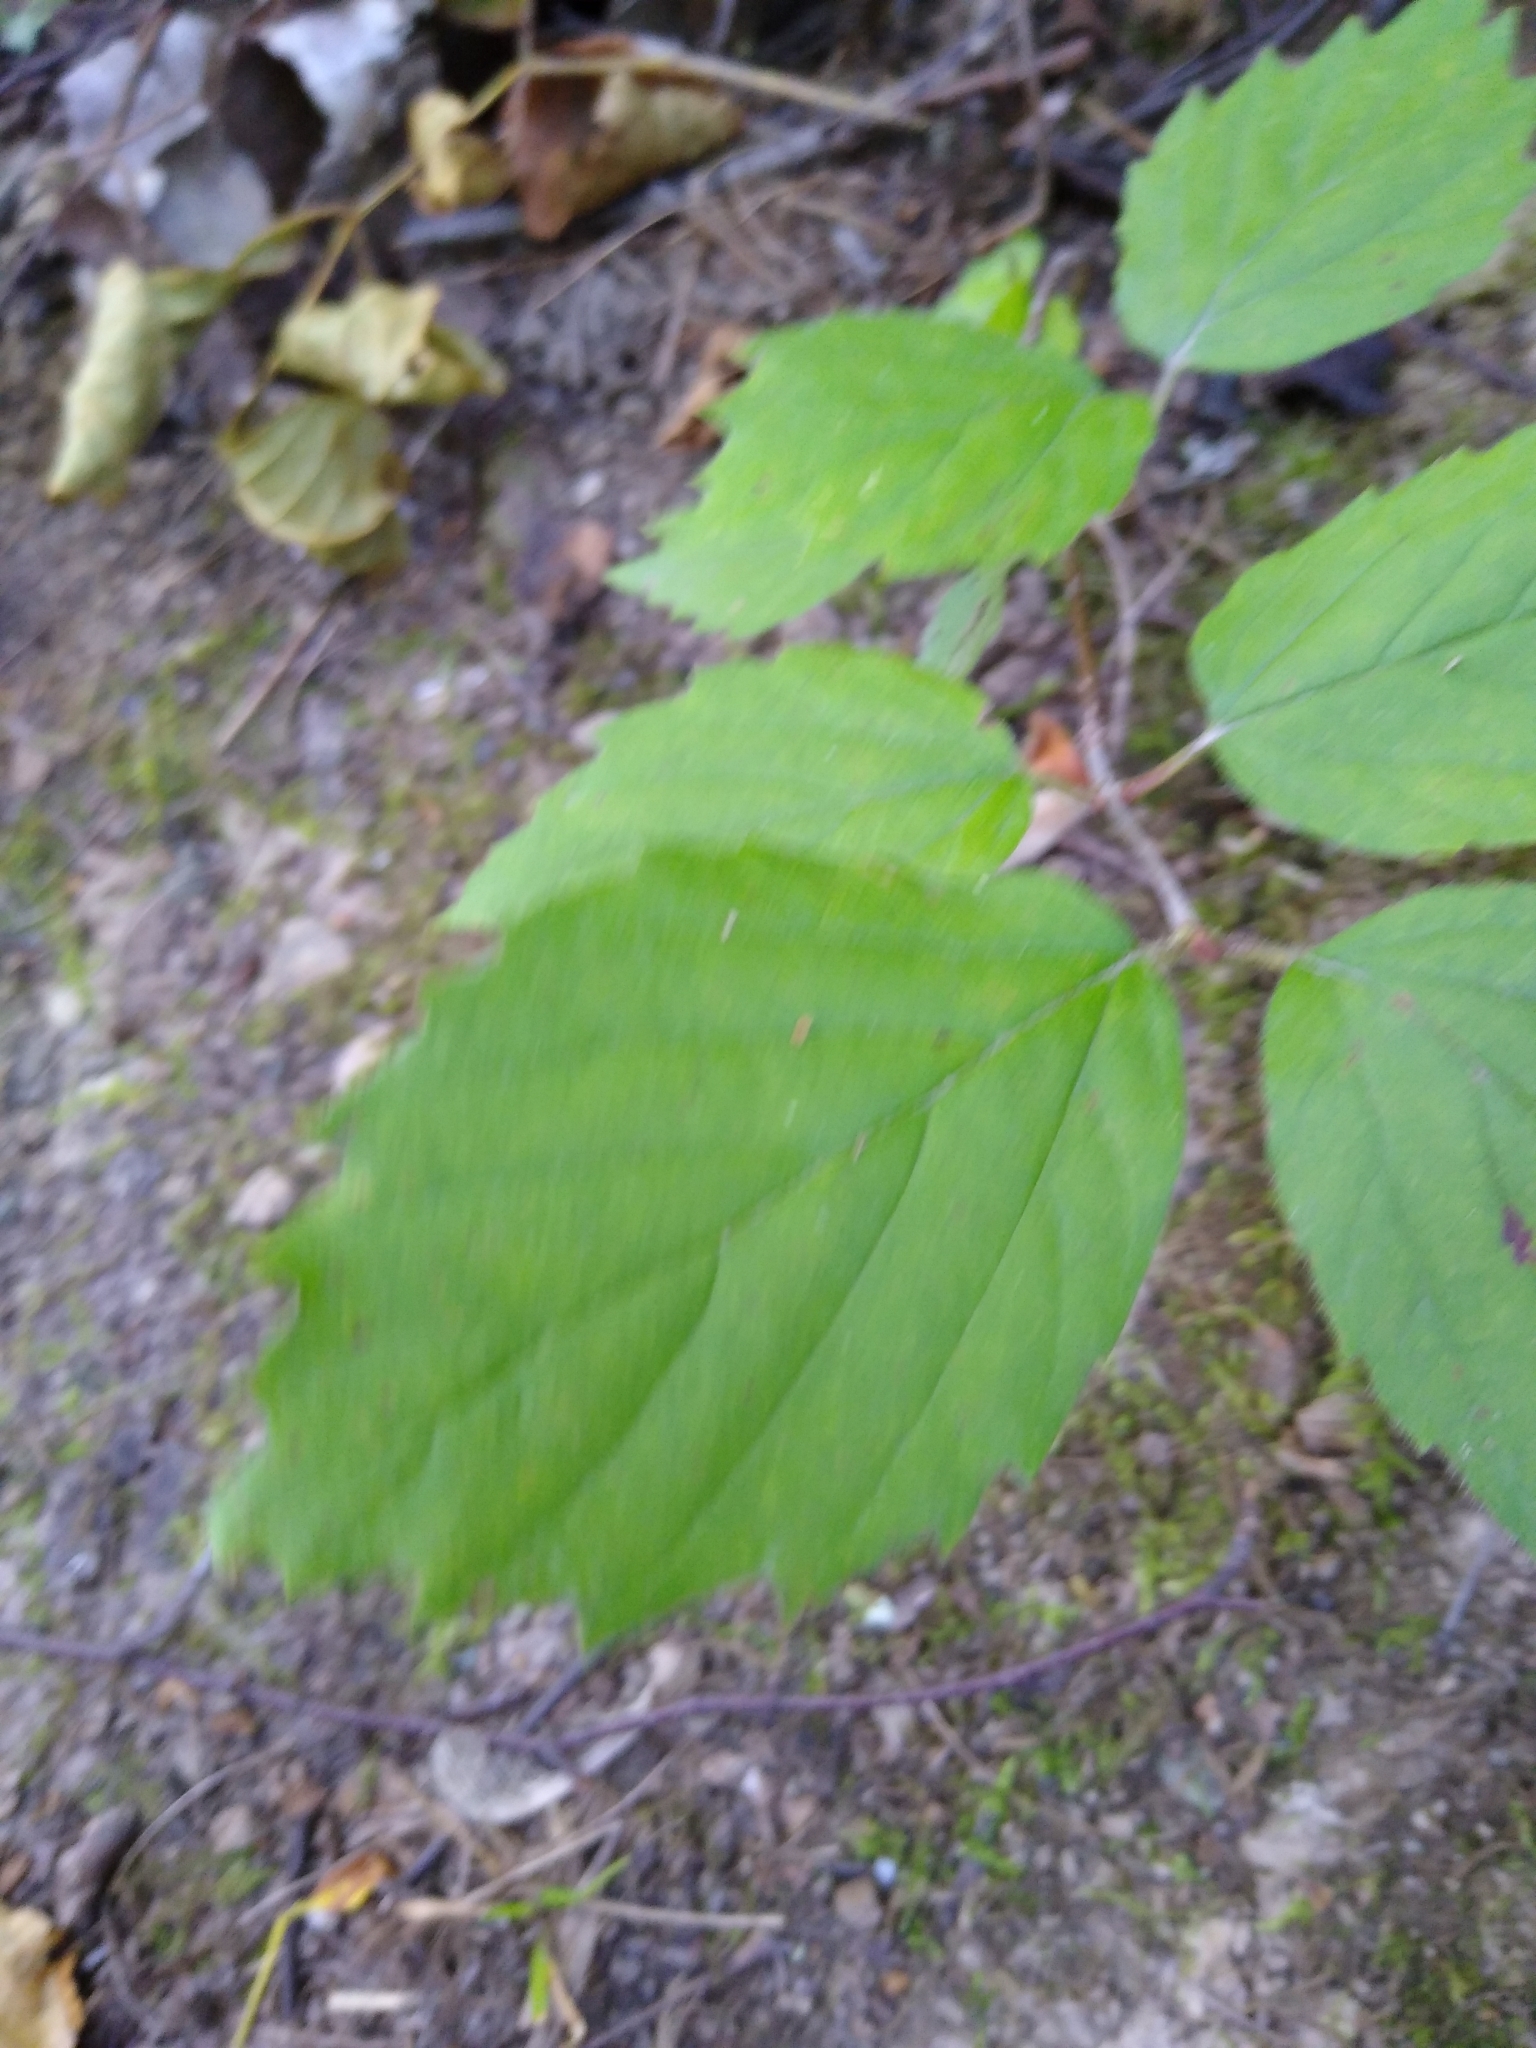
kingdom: Plantae
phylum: Tracheophyta
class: Magnoliopsida
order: Dipsacales
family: Viburnaceae
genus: Viburnum
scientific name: Viburnum rafinesqueanum
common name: Downy arrow-wood
